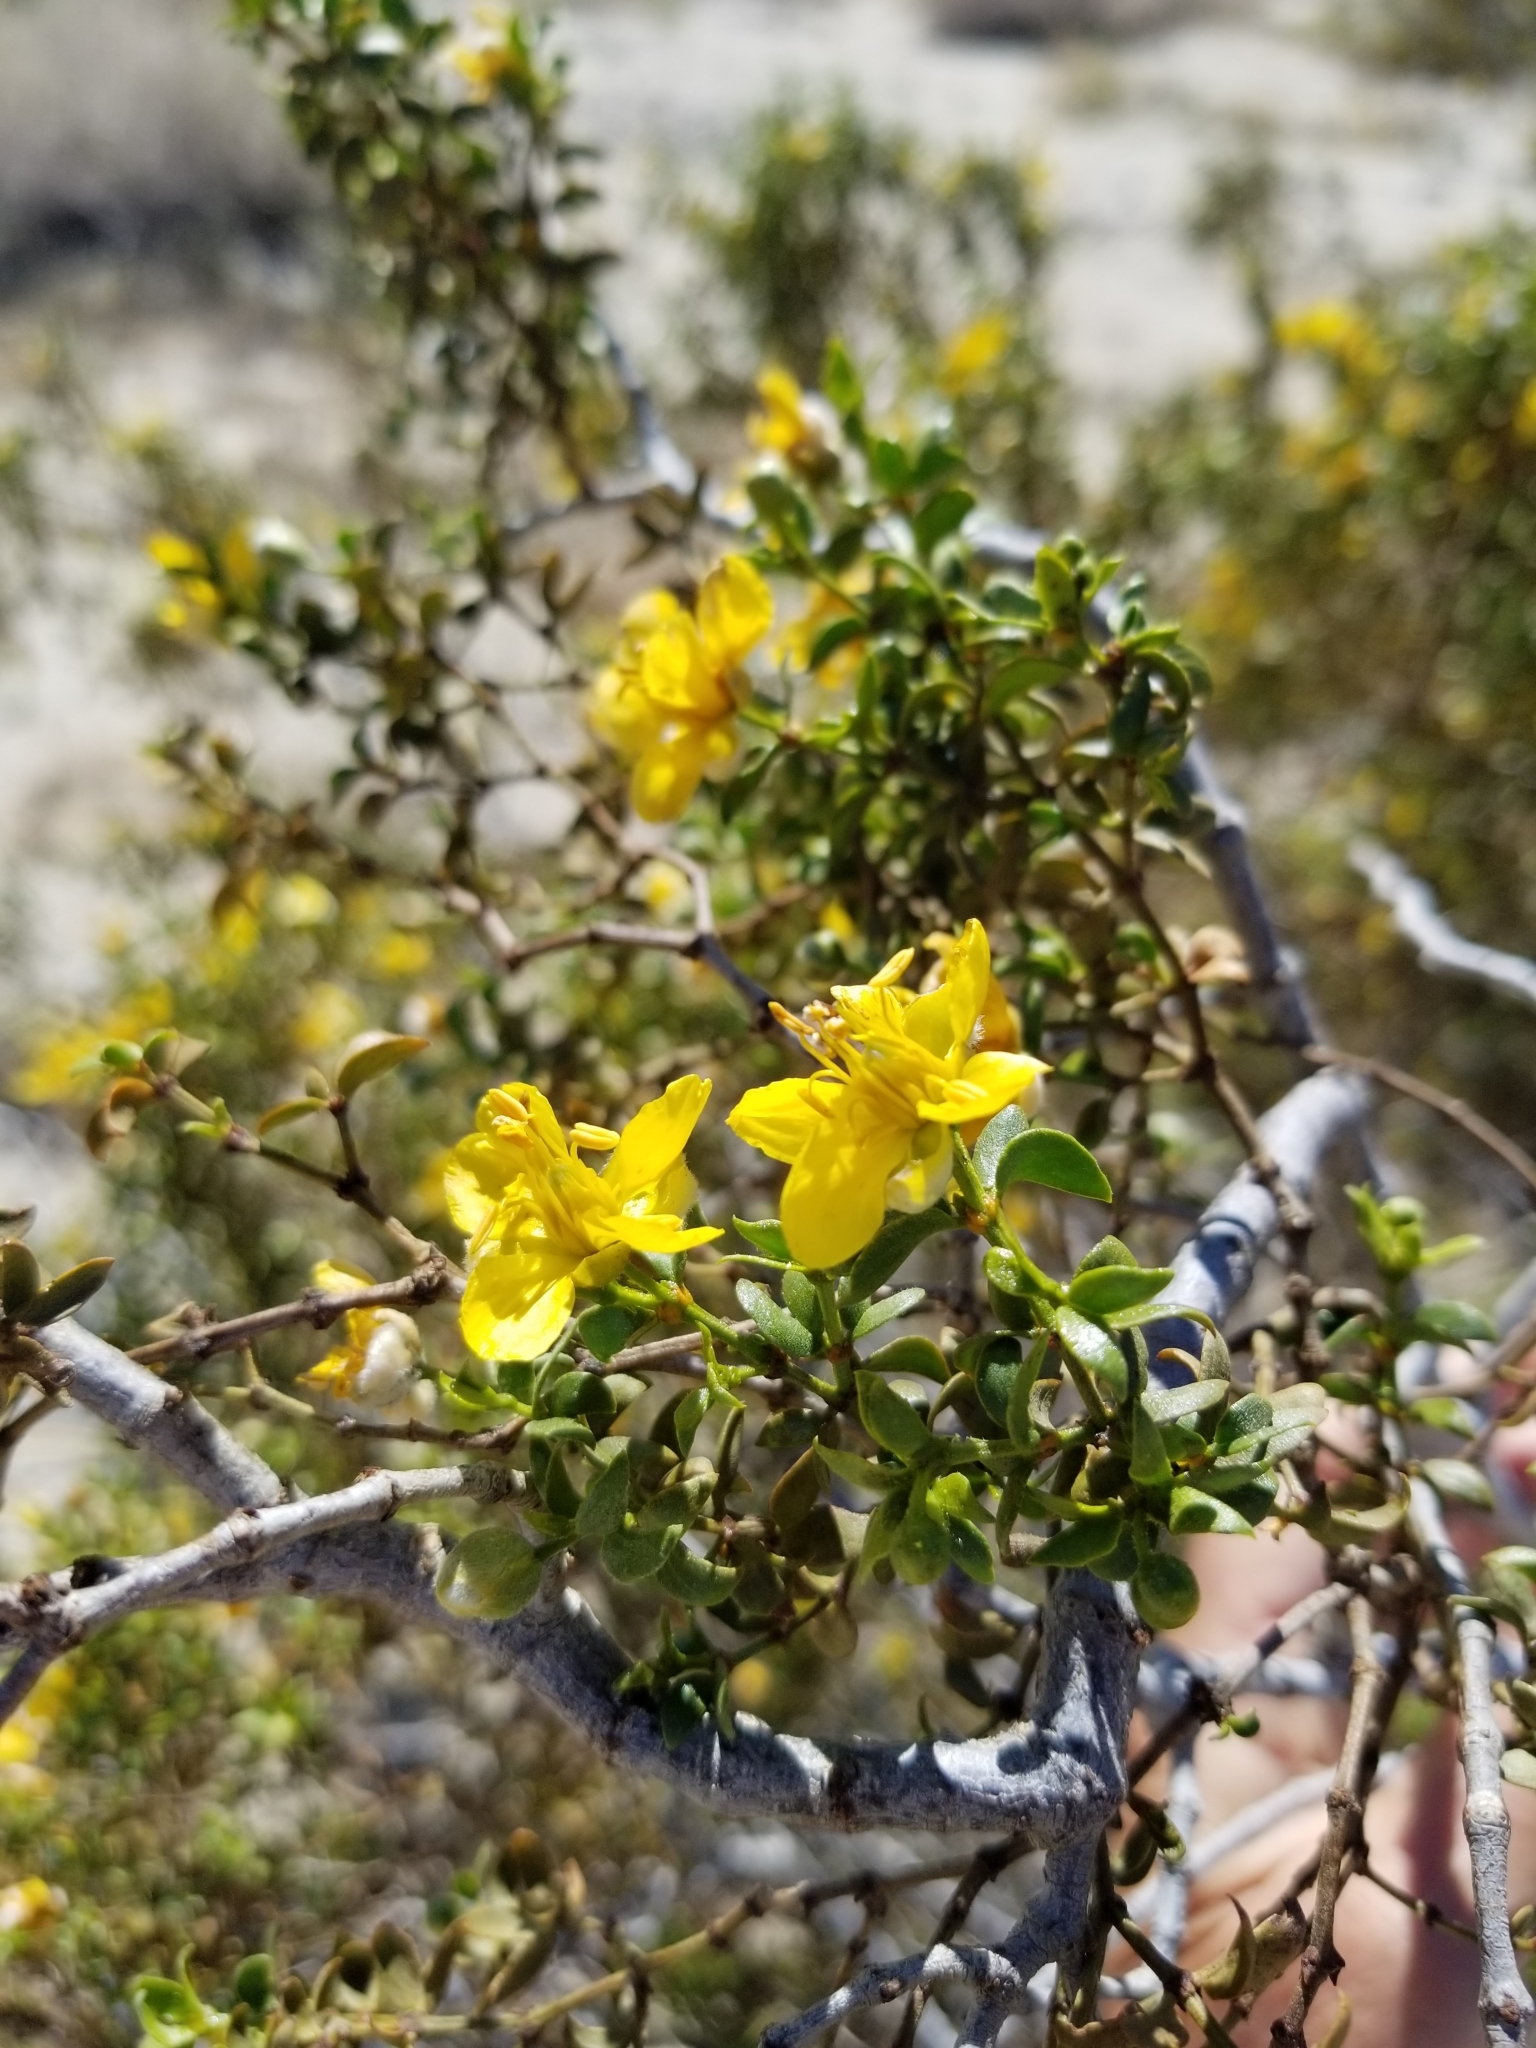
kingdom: Plantae
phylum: Tracheophyta
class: Magnoliopsida
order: Zygophyllales
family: Zygophyllaceae
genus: Larrea
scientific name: Larrea tridentata
